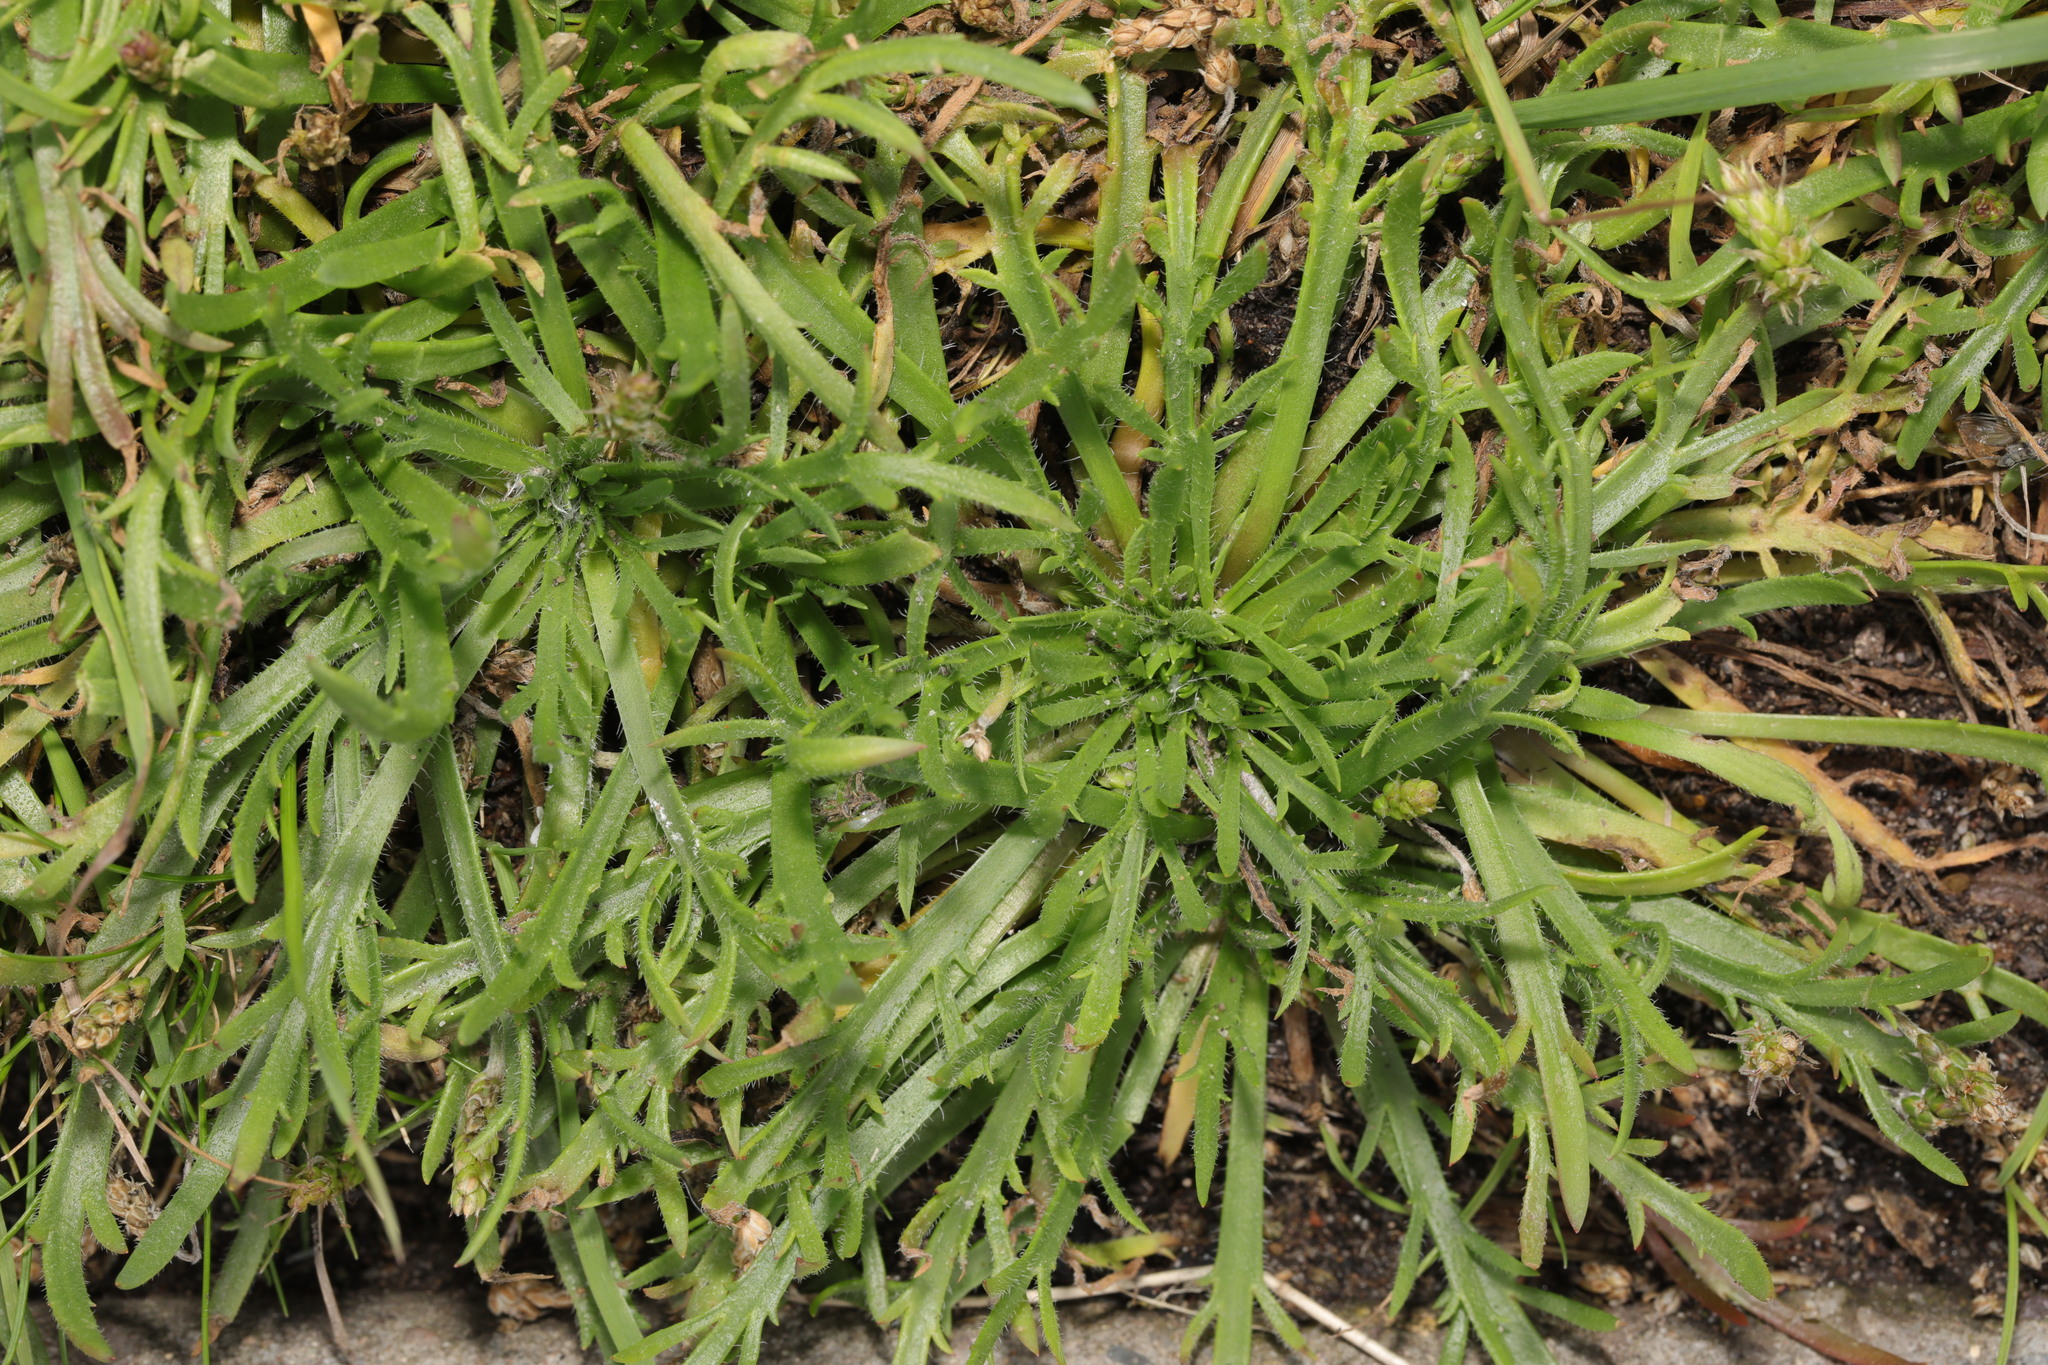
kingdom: Plantae
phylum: Tracheophyta
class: Magnoliopsida
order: Lamiales
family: Plantaginaceae
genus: Plantago
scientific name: Plantago coronopus
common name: Buck's-horn plantain
